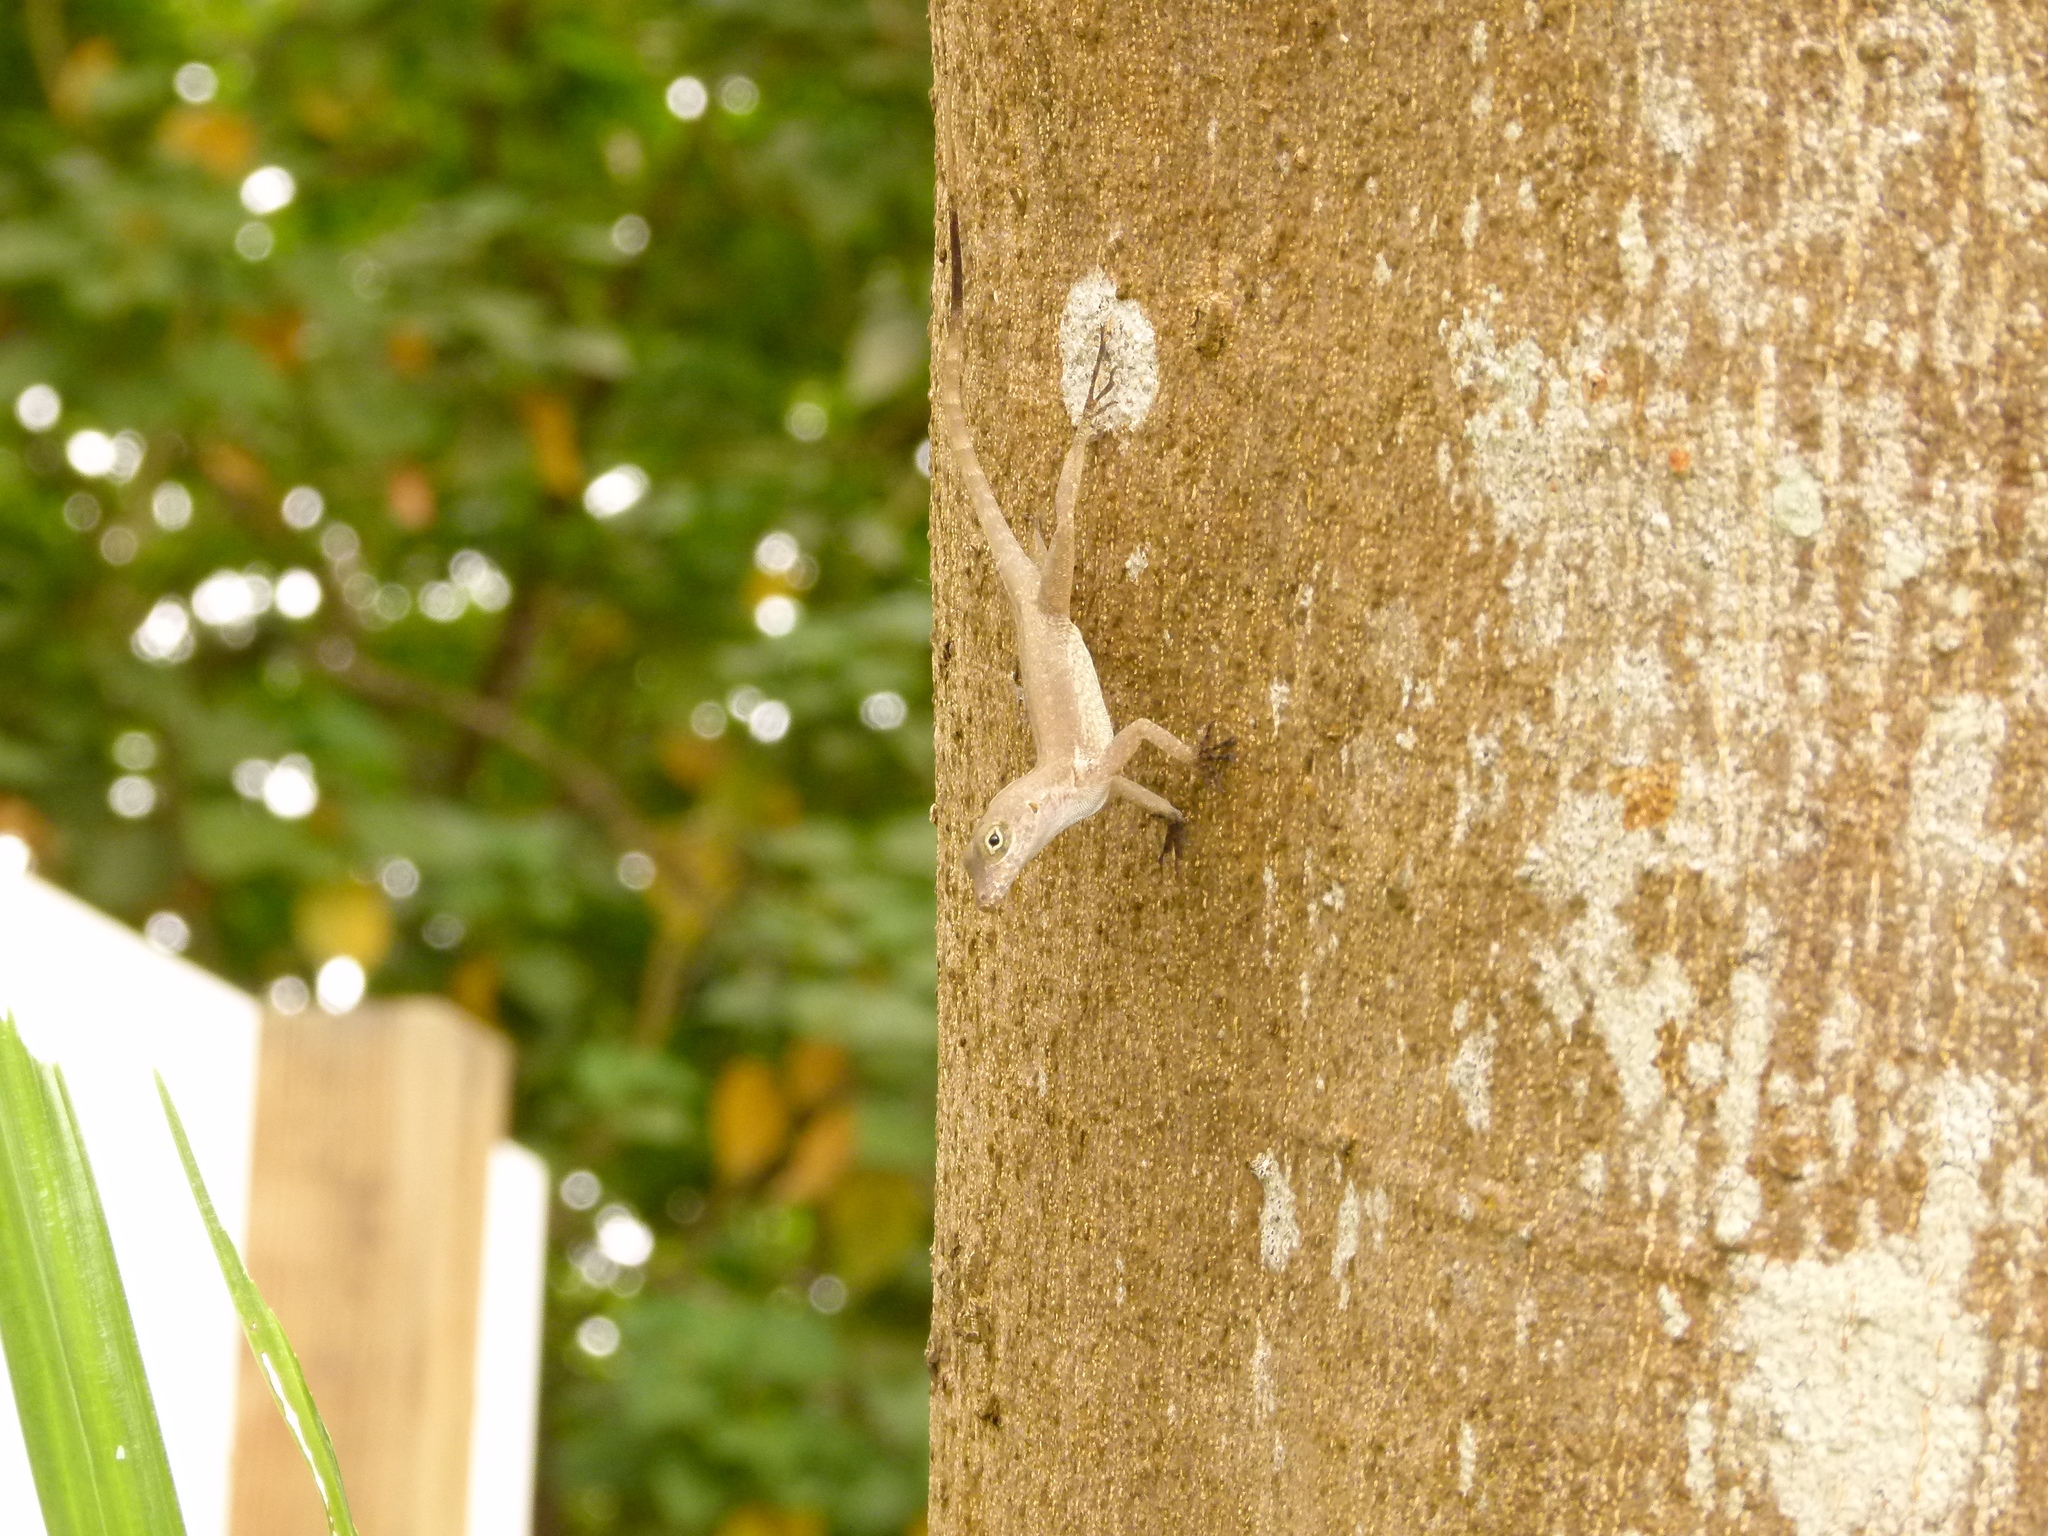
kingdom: Animalia
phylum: Chordata
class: Squamata
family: Dactyloidae
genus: Anolis
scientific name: Anolis cristatellus
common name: Crested anole
